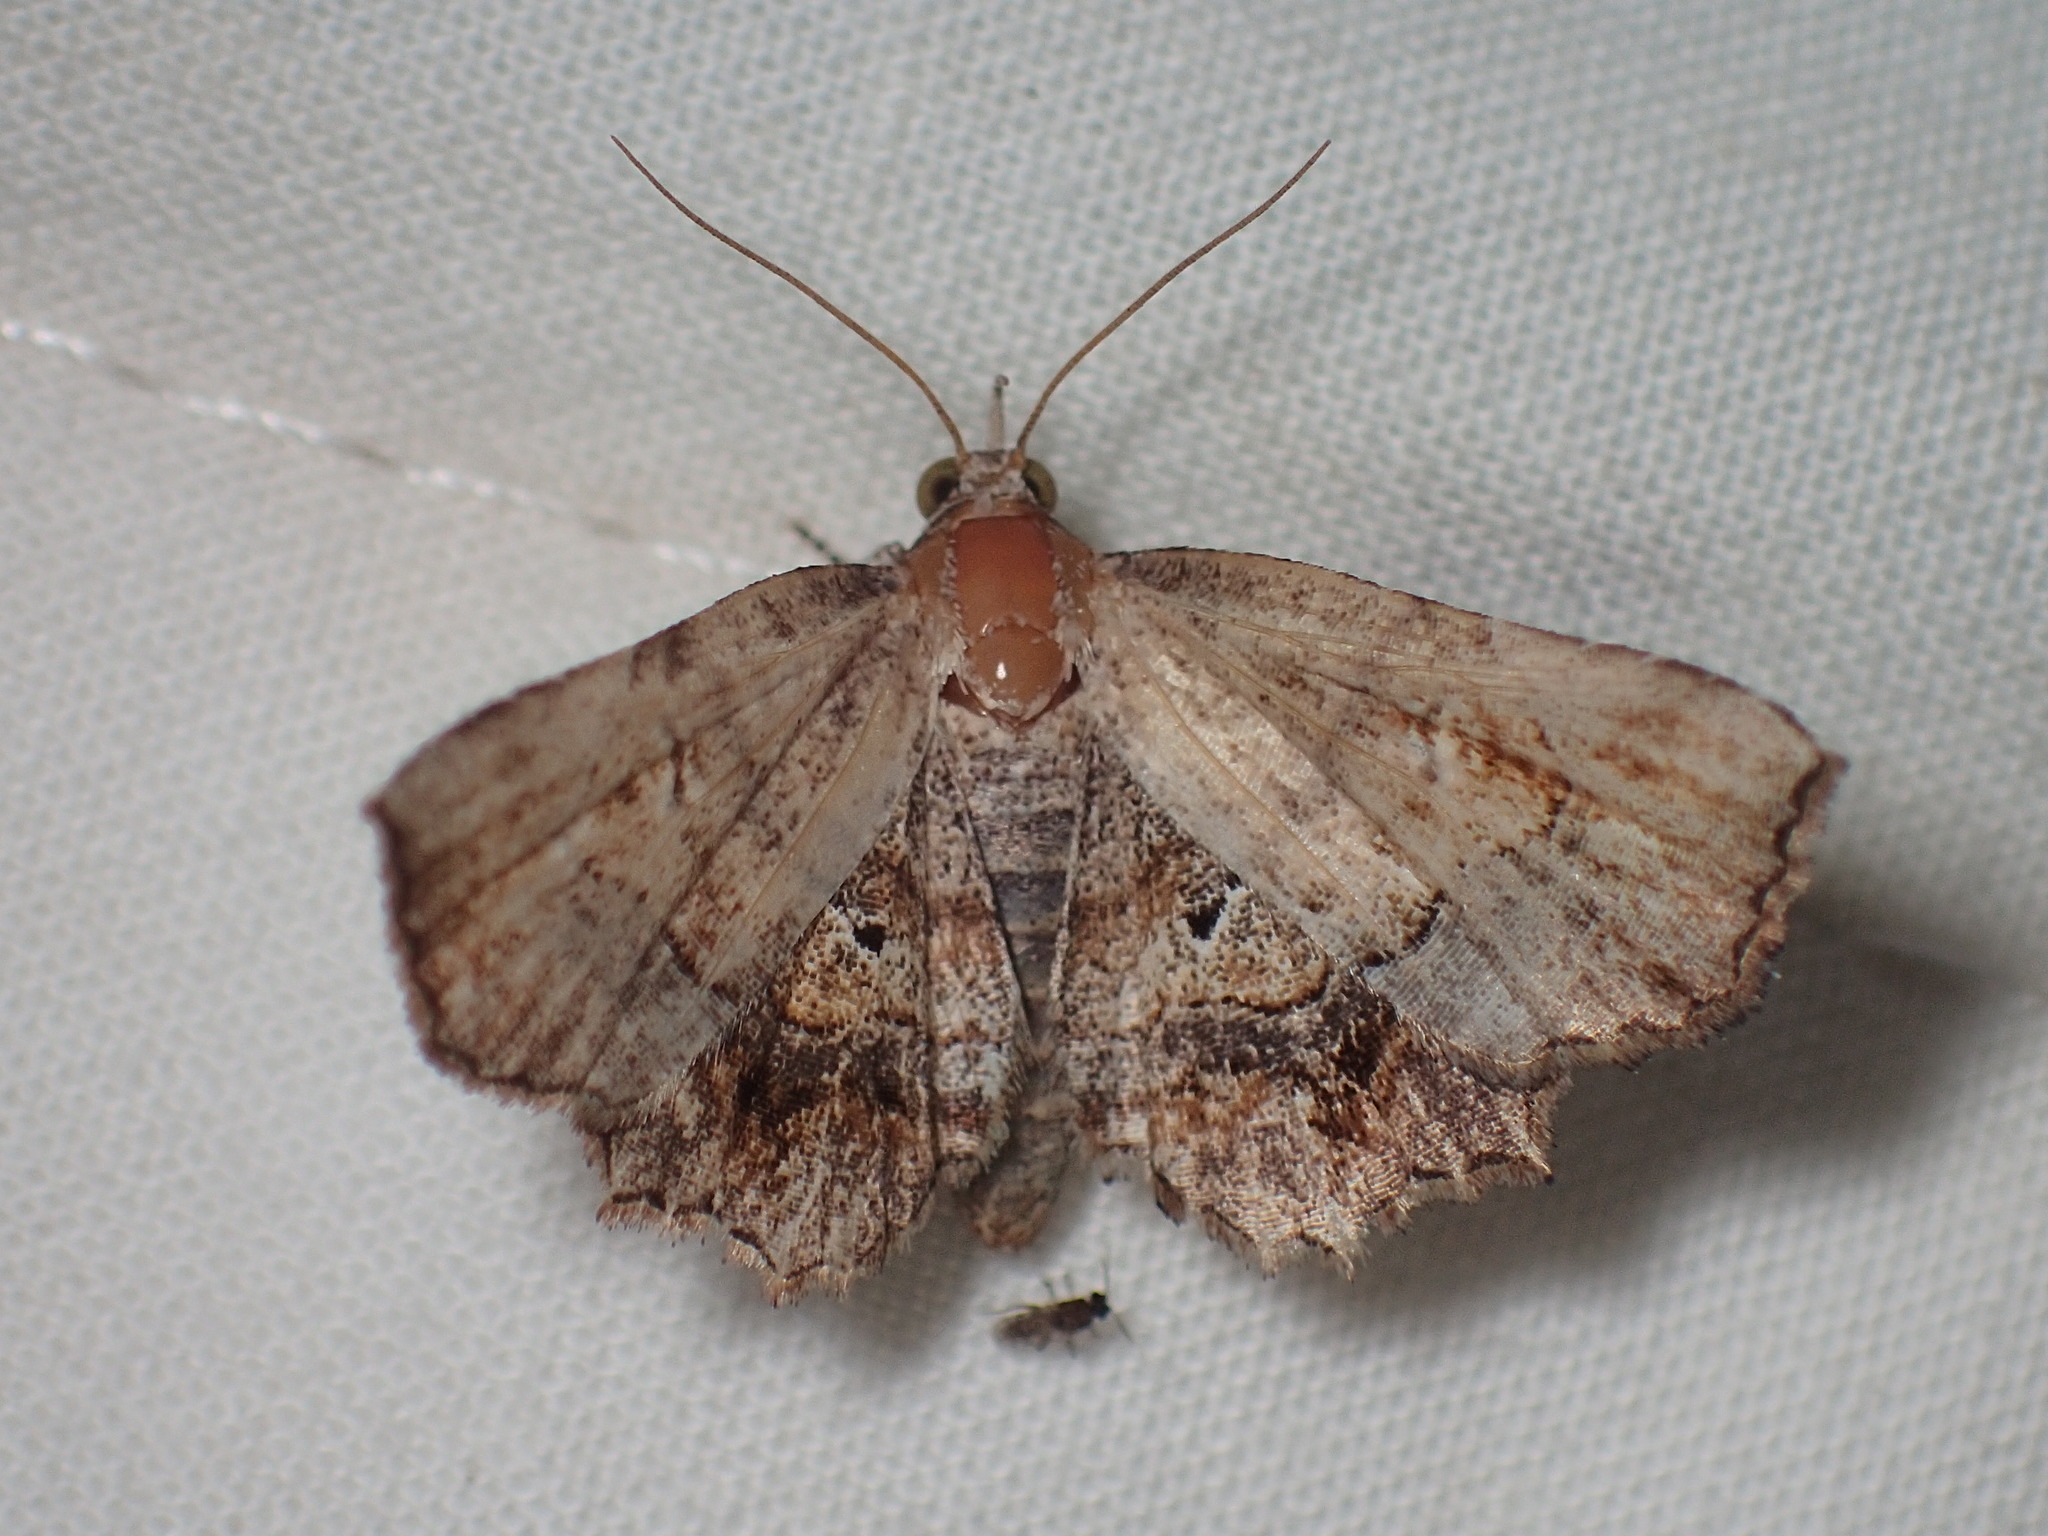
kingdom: Animalia
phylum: Arthropoda
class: Insecta
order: Lepidoptera
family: Erebidae
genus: Pangrapta
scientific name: Pangrapta decoralis
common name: Decorated owlet
